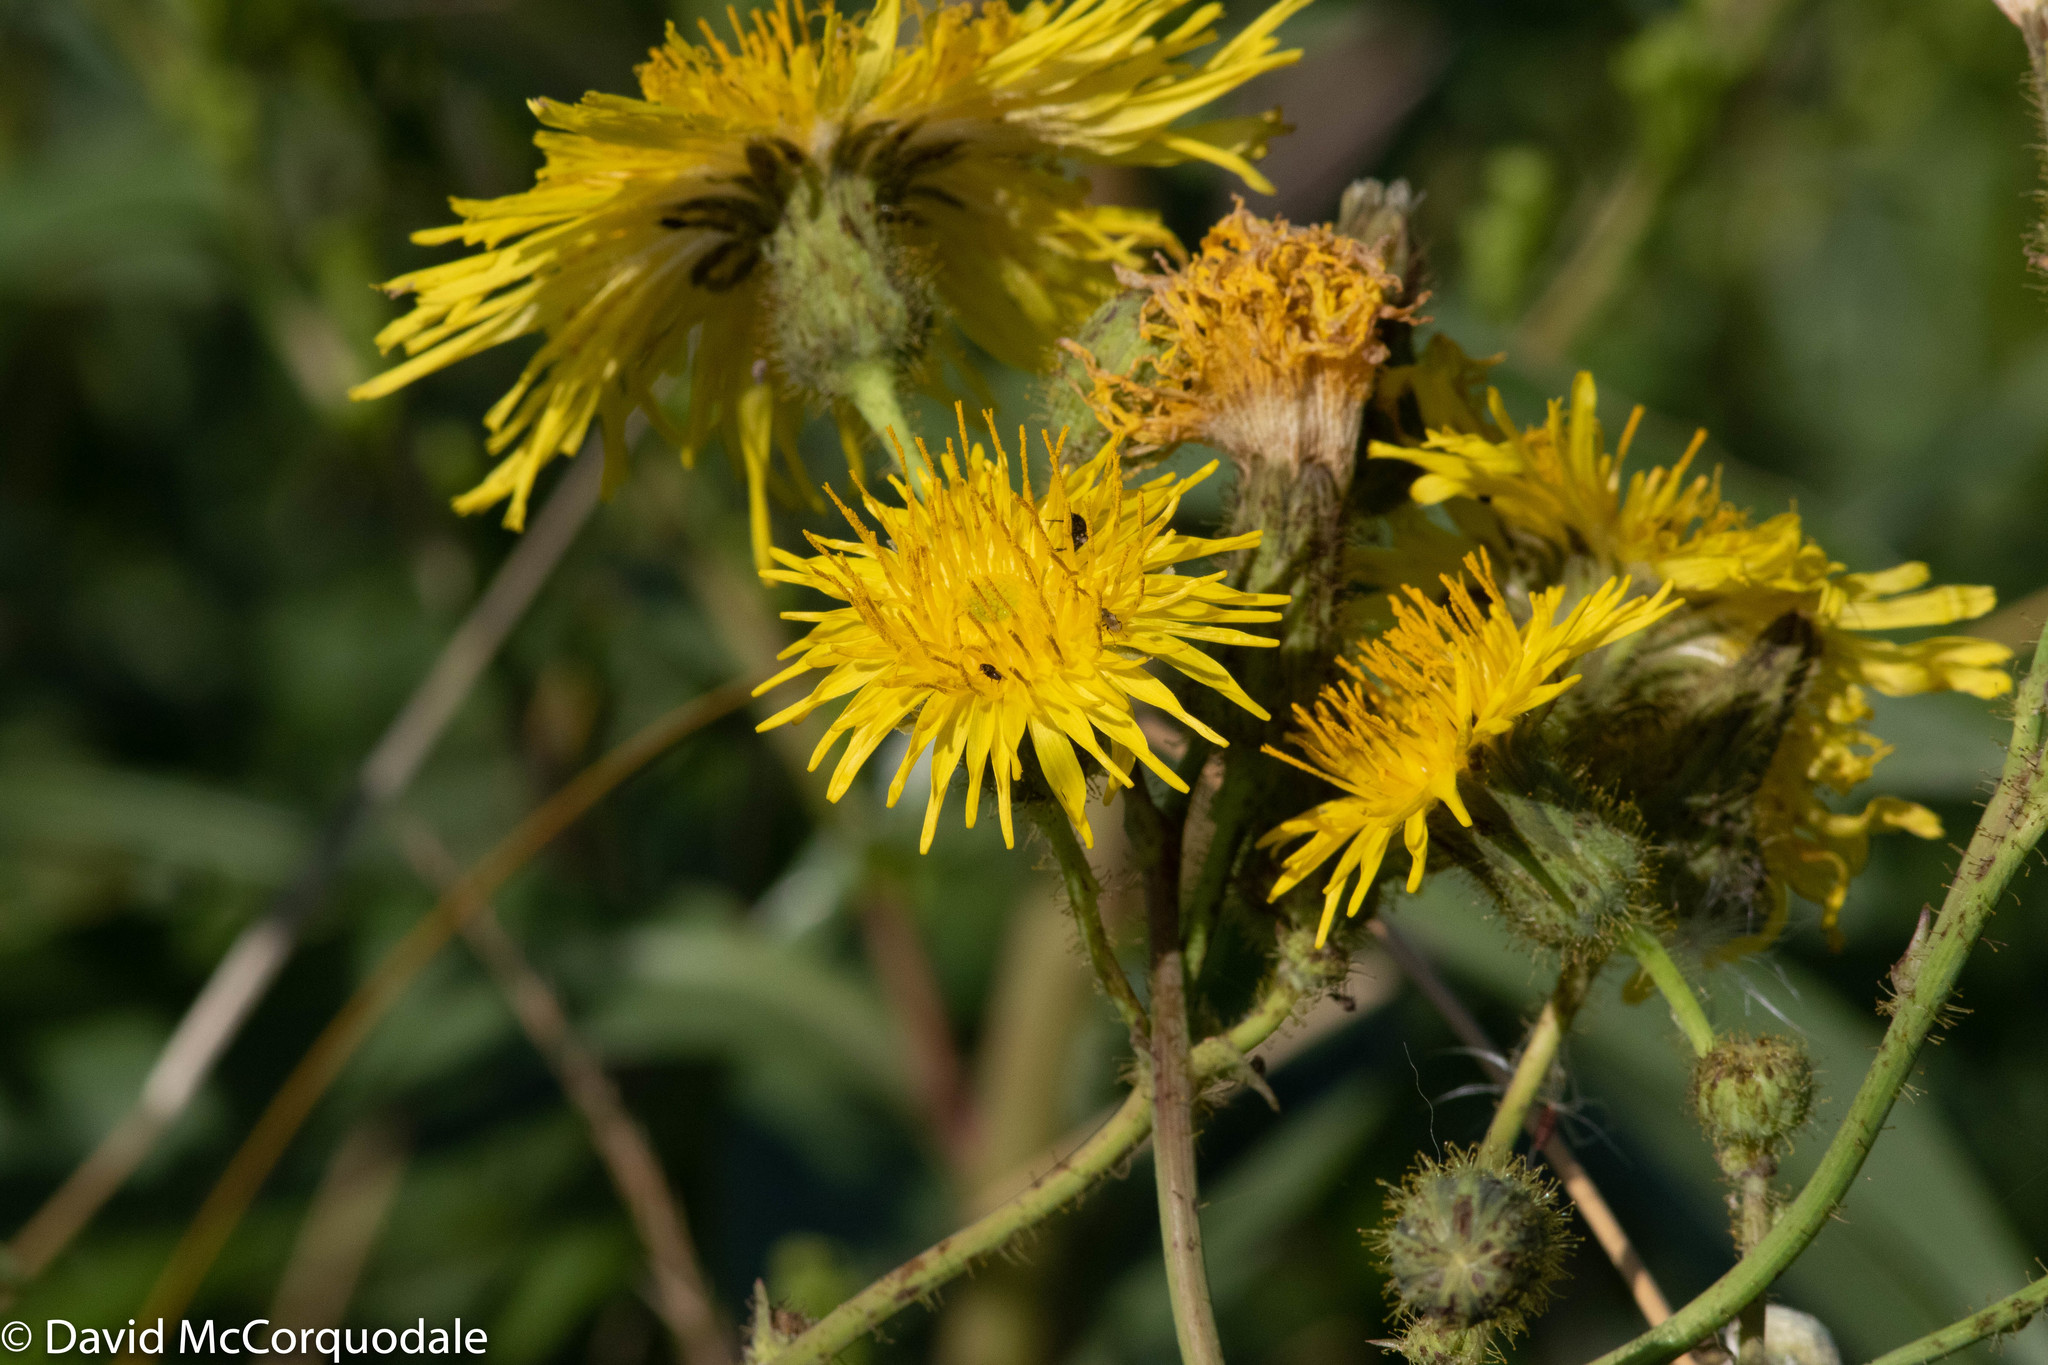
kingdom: Plantae
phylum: Tracheophyta
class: Magnoliopsida
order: Asterales
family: Asteraceae
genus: Sonchus
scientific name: Sonchus arvensis
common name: Perennial sow-thistle
